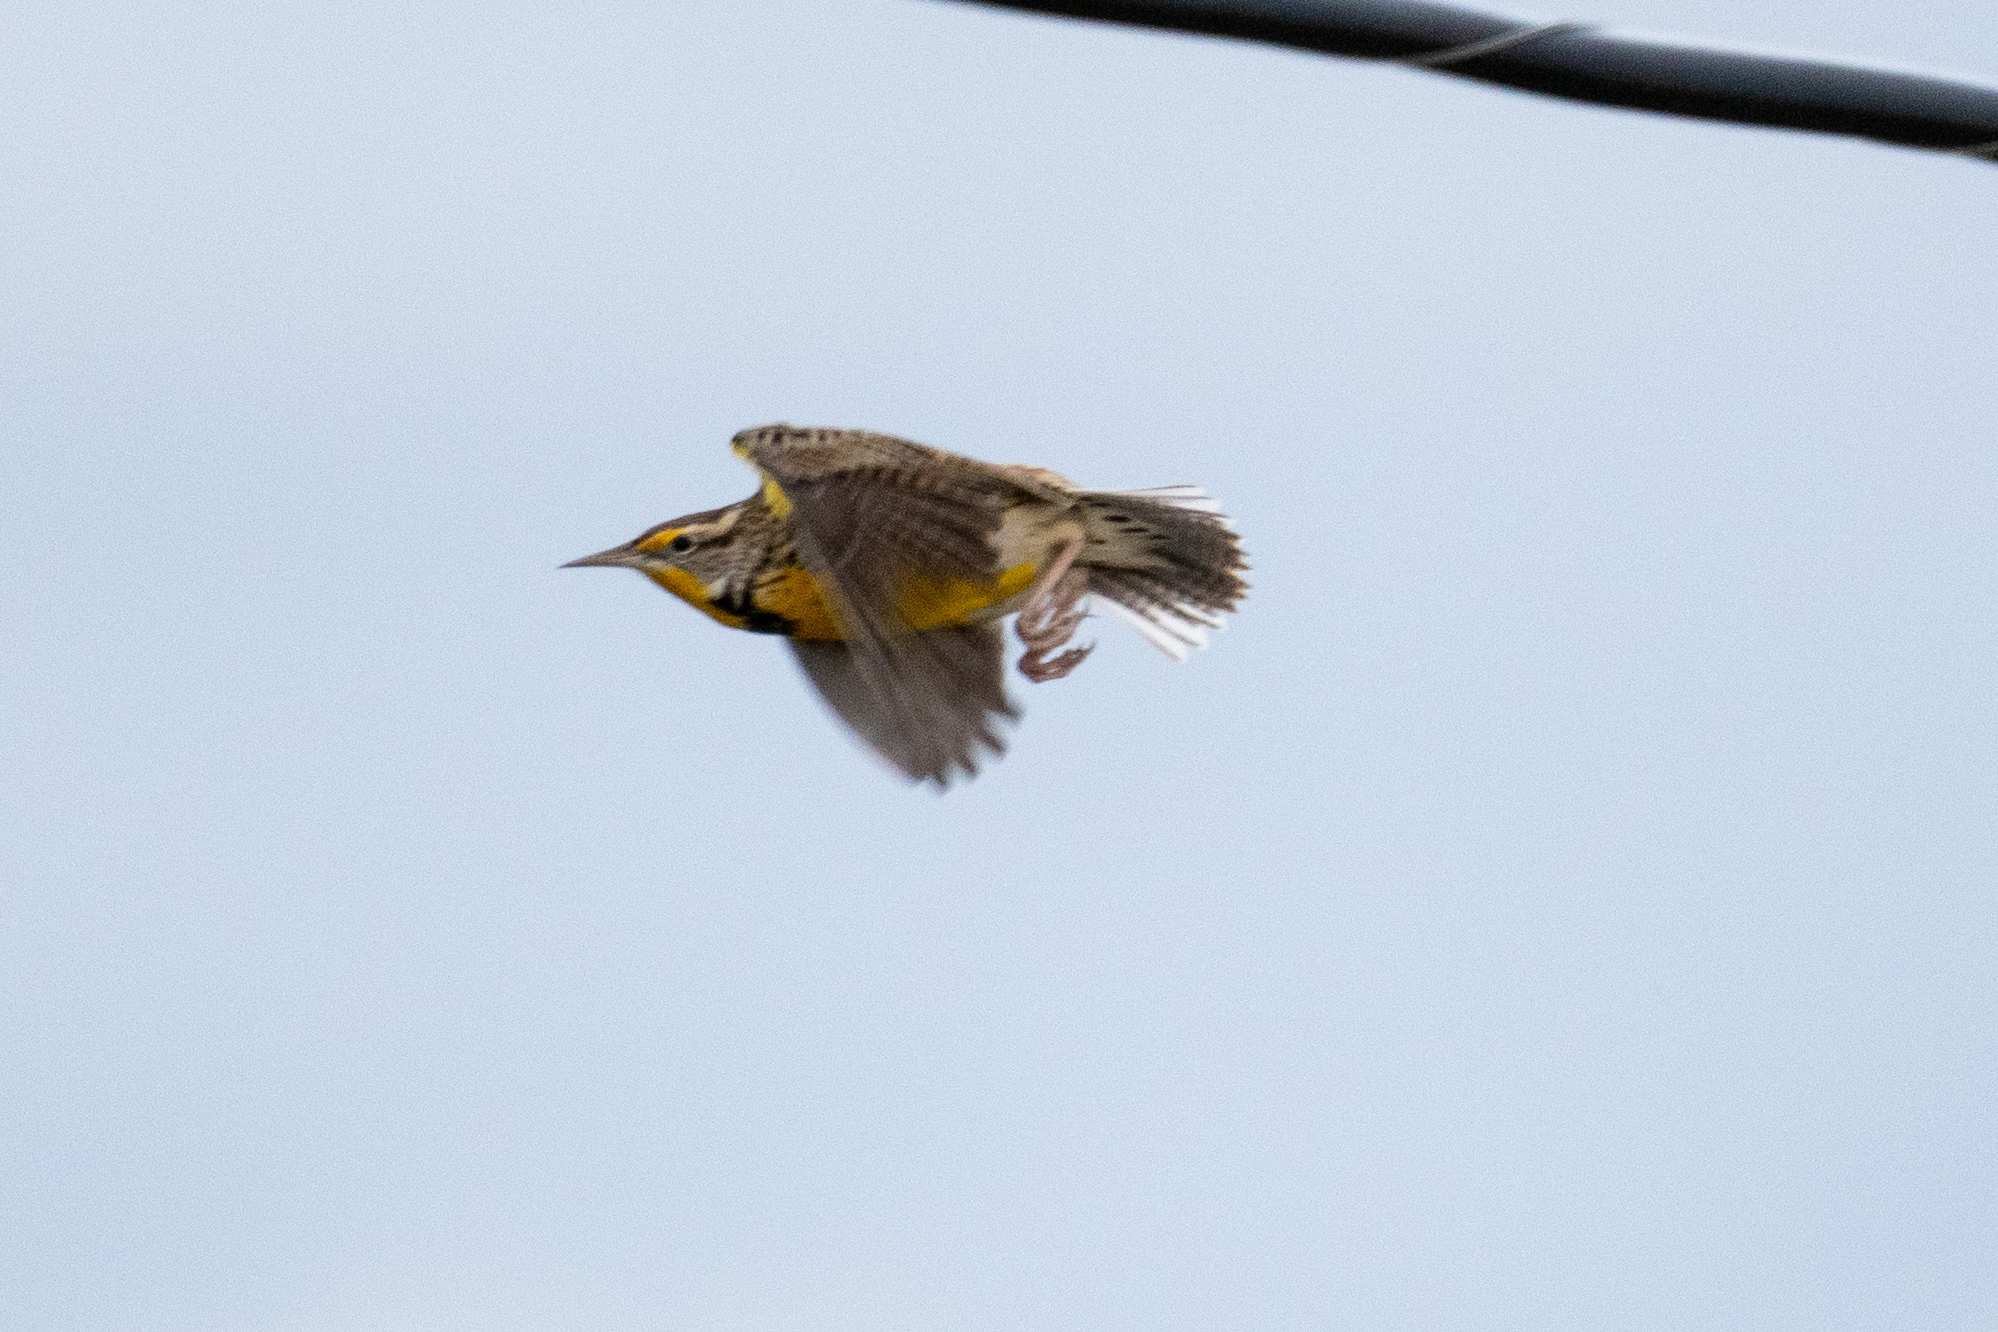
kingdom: Animalia
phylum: Chordata
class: Aves
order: Passeriformes
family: Icteridae
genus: Sturnella
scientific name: Sturnella neglecta
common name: Western meadowlark
